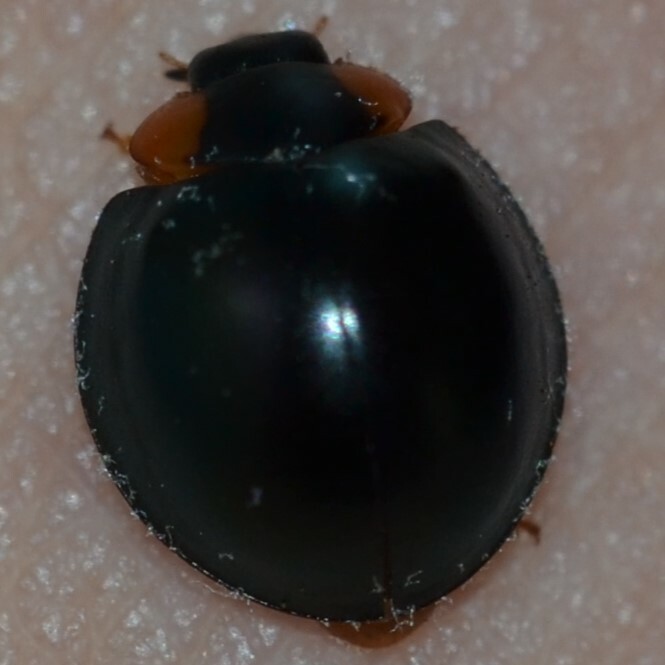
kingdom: Animalia
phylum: Arthropoda
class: Insecta
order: Coleoptera
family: Coccinellidae
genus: Curinus
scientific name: Curinus coeruleus
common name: Ladybird beetle
